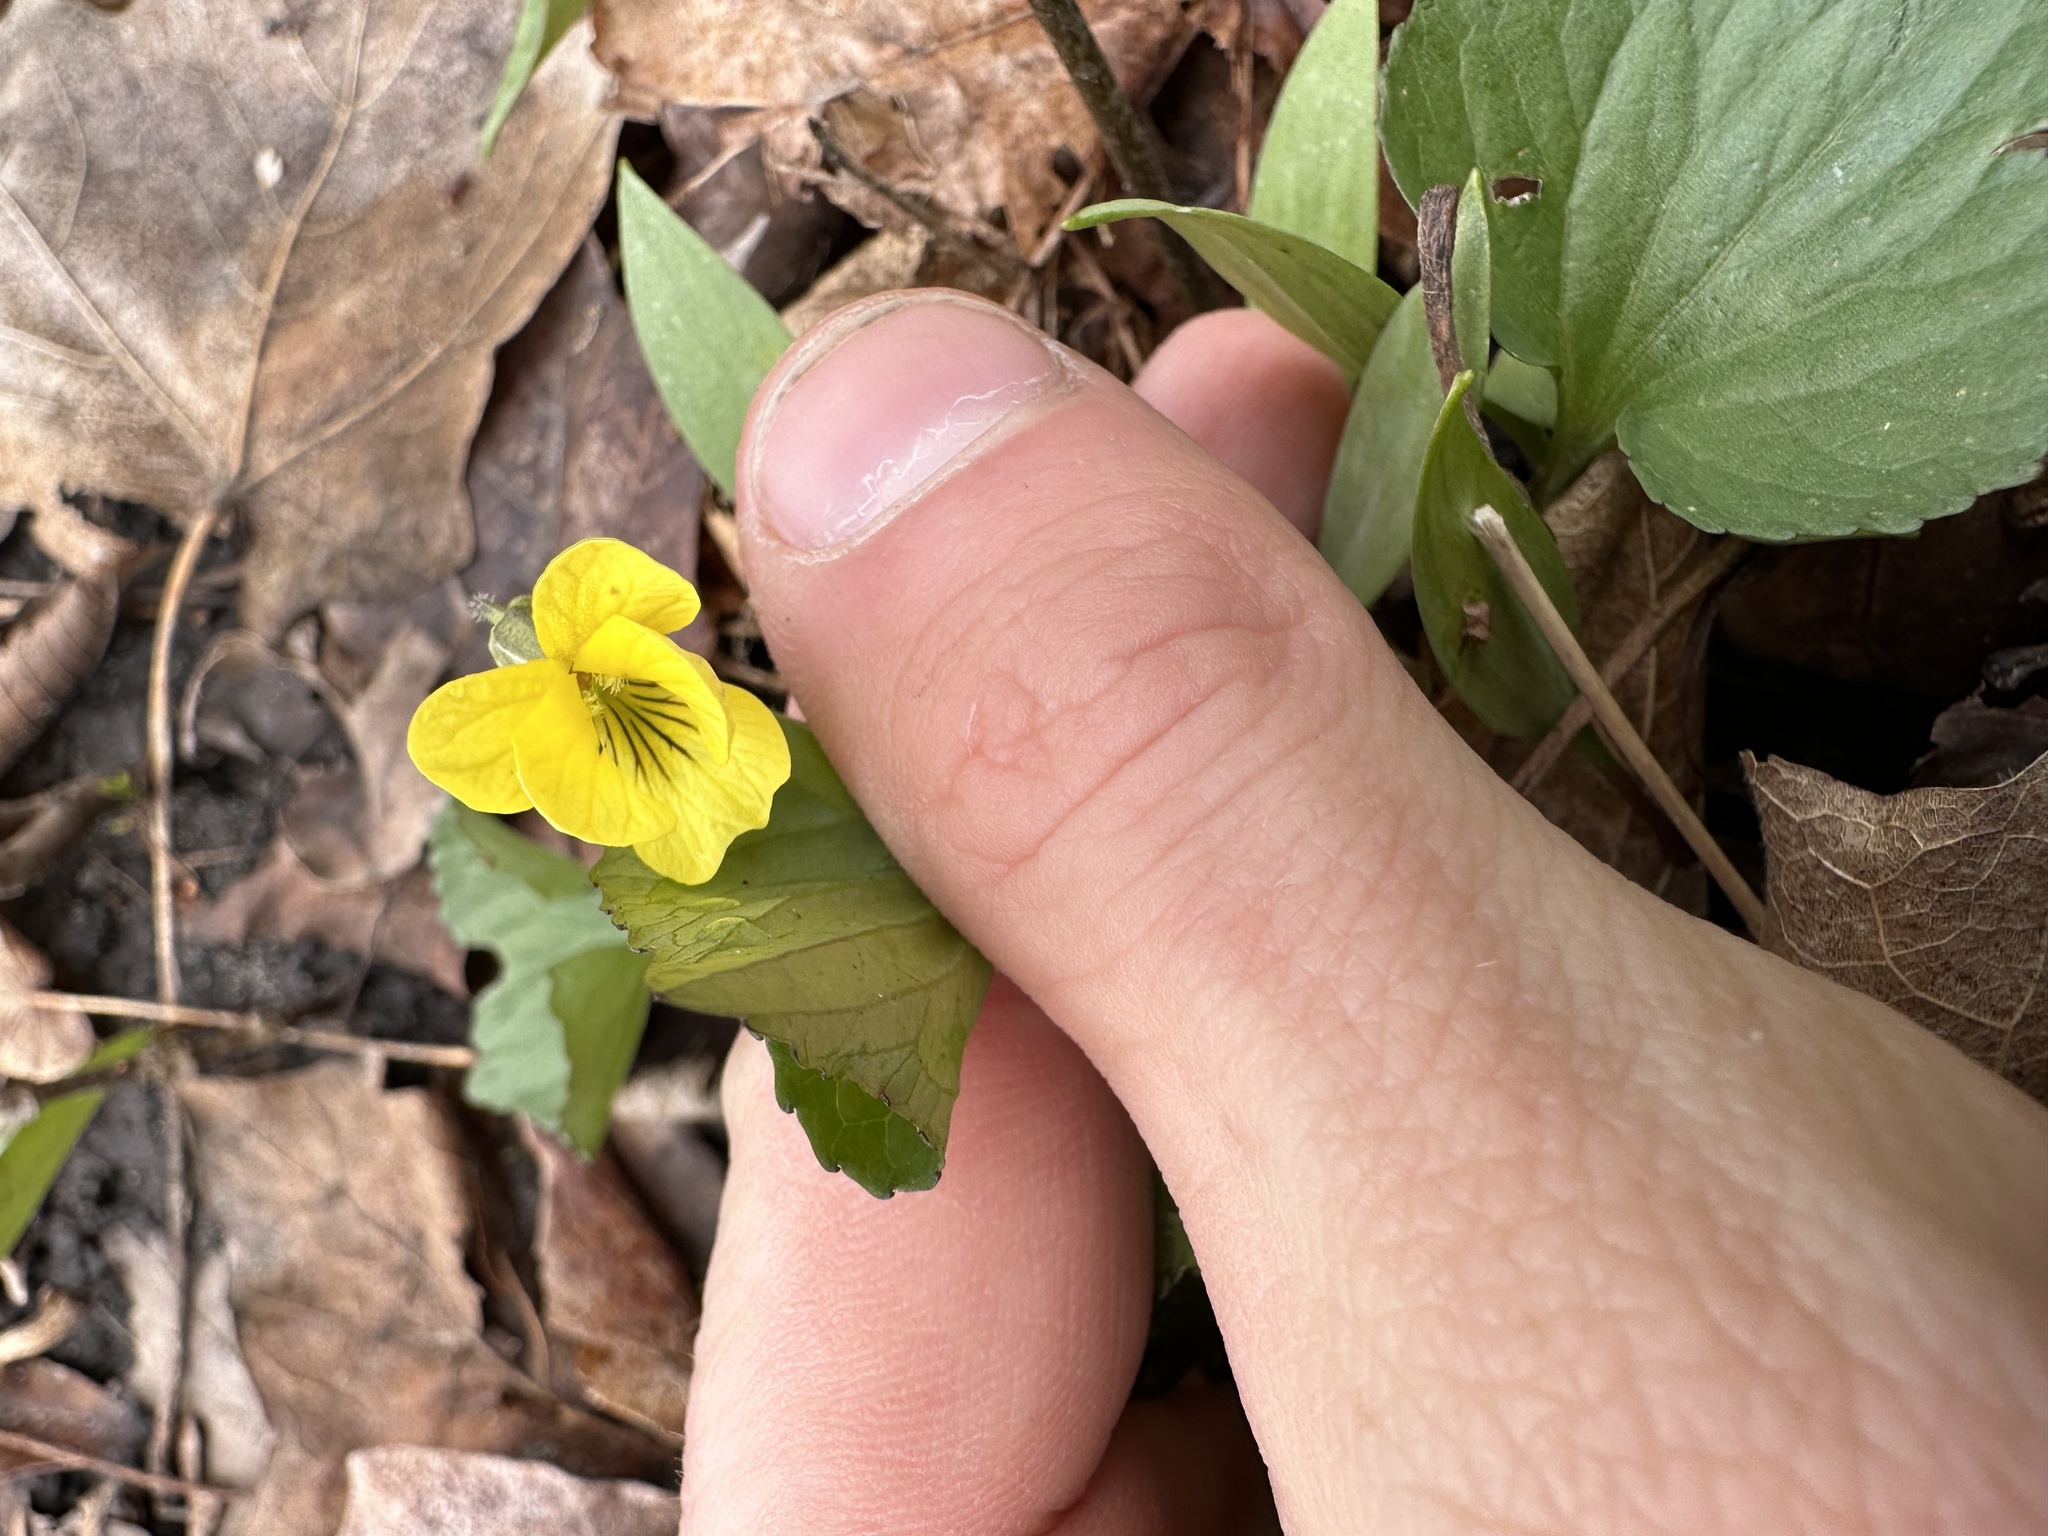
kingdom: Plantae
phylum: Tracheophyta
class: Magnoliopsida
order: Malpighiales
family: Violaceae
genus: Viola
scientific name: Viola eriocarpa
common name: Smooth yellow violet
